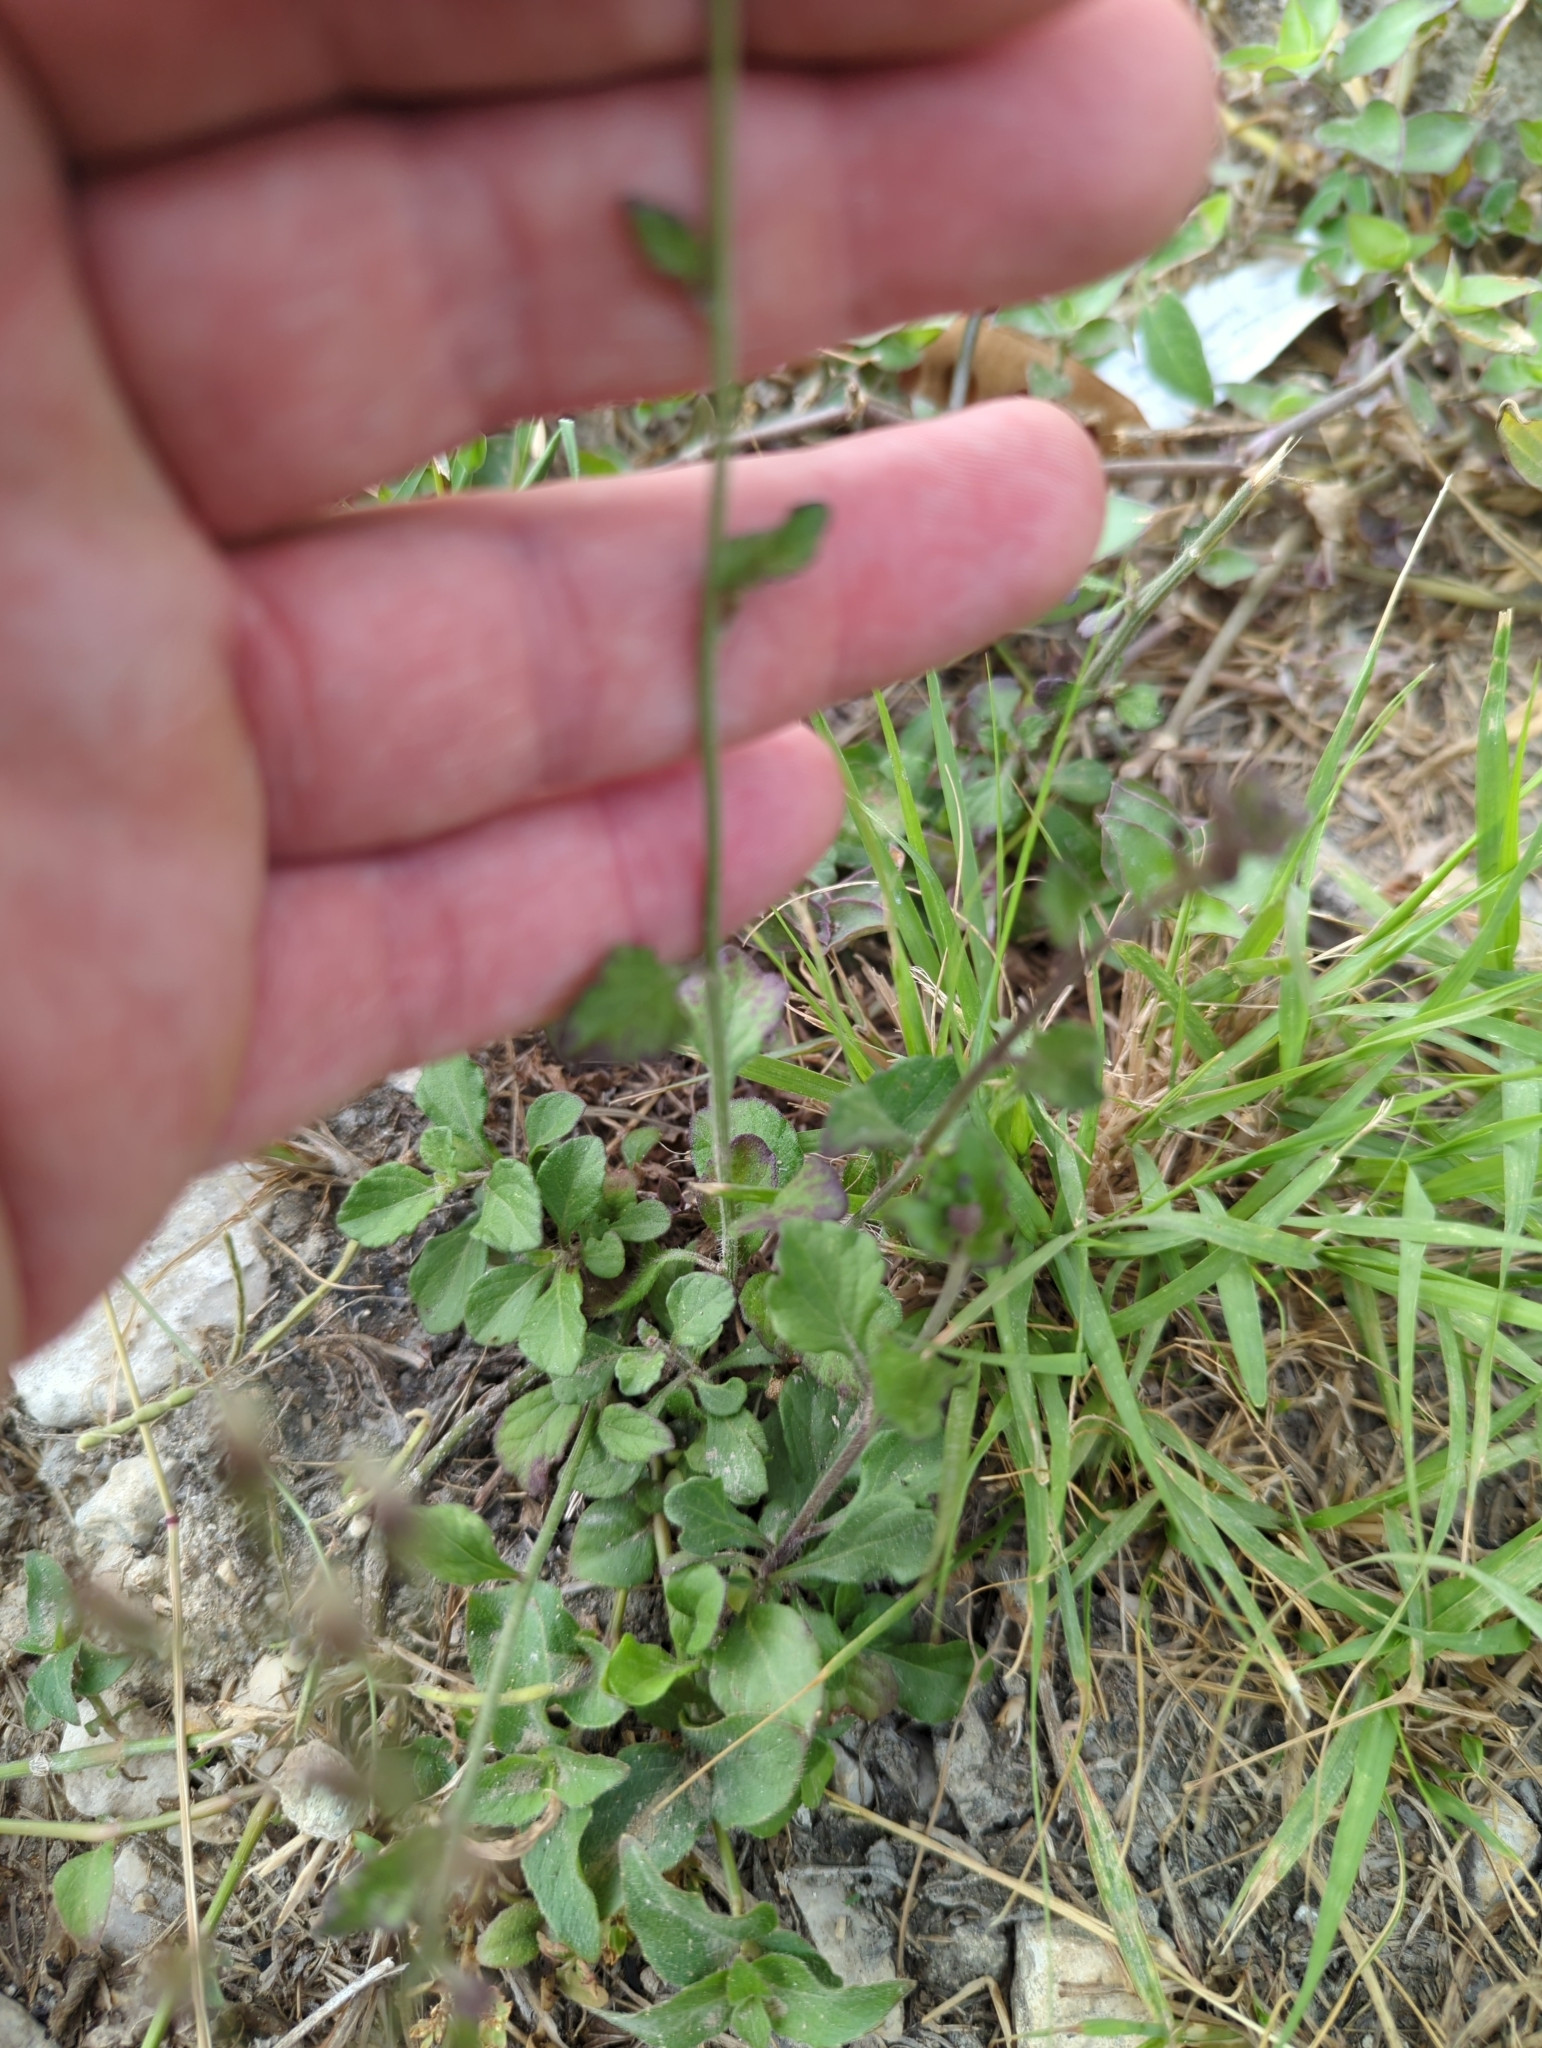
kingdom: Plantae
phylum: Tracheophyta
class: Magnoliopsida
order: Asterales
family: Asteraceae
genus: Cyanthillium
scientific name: Cyanthillium cinereum
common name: Little ironweed
